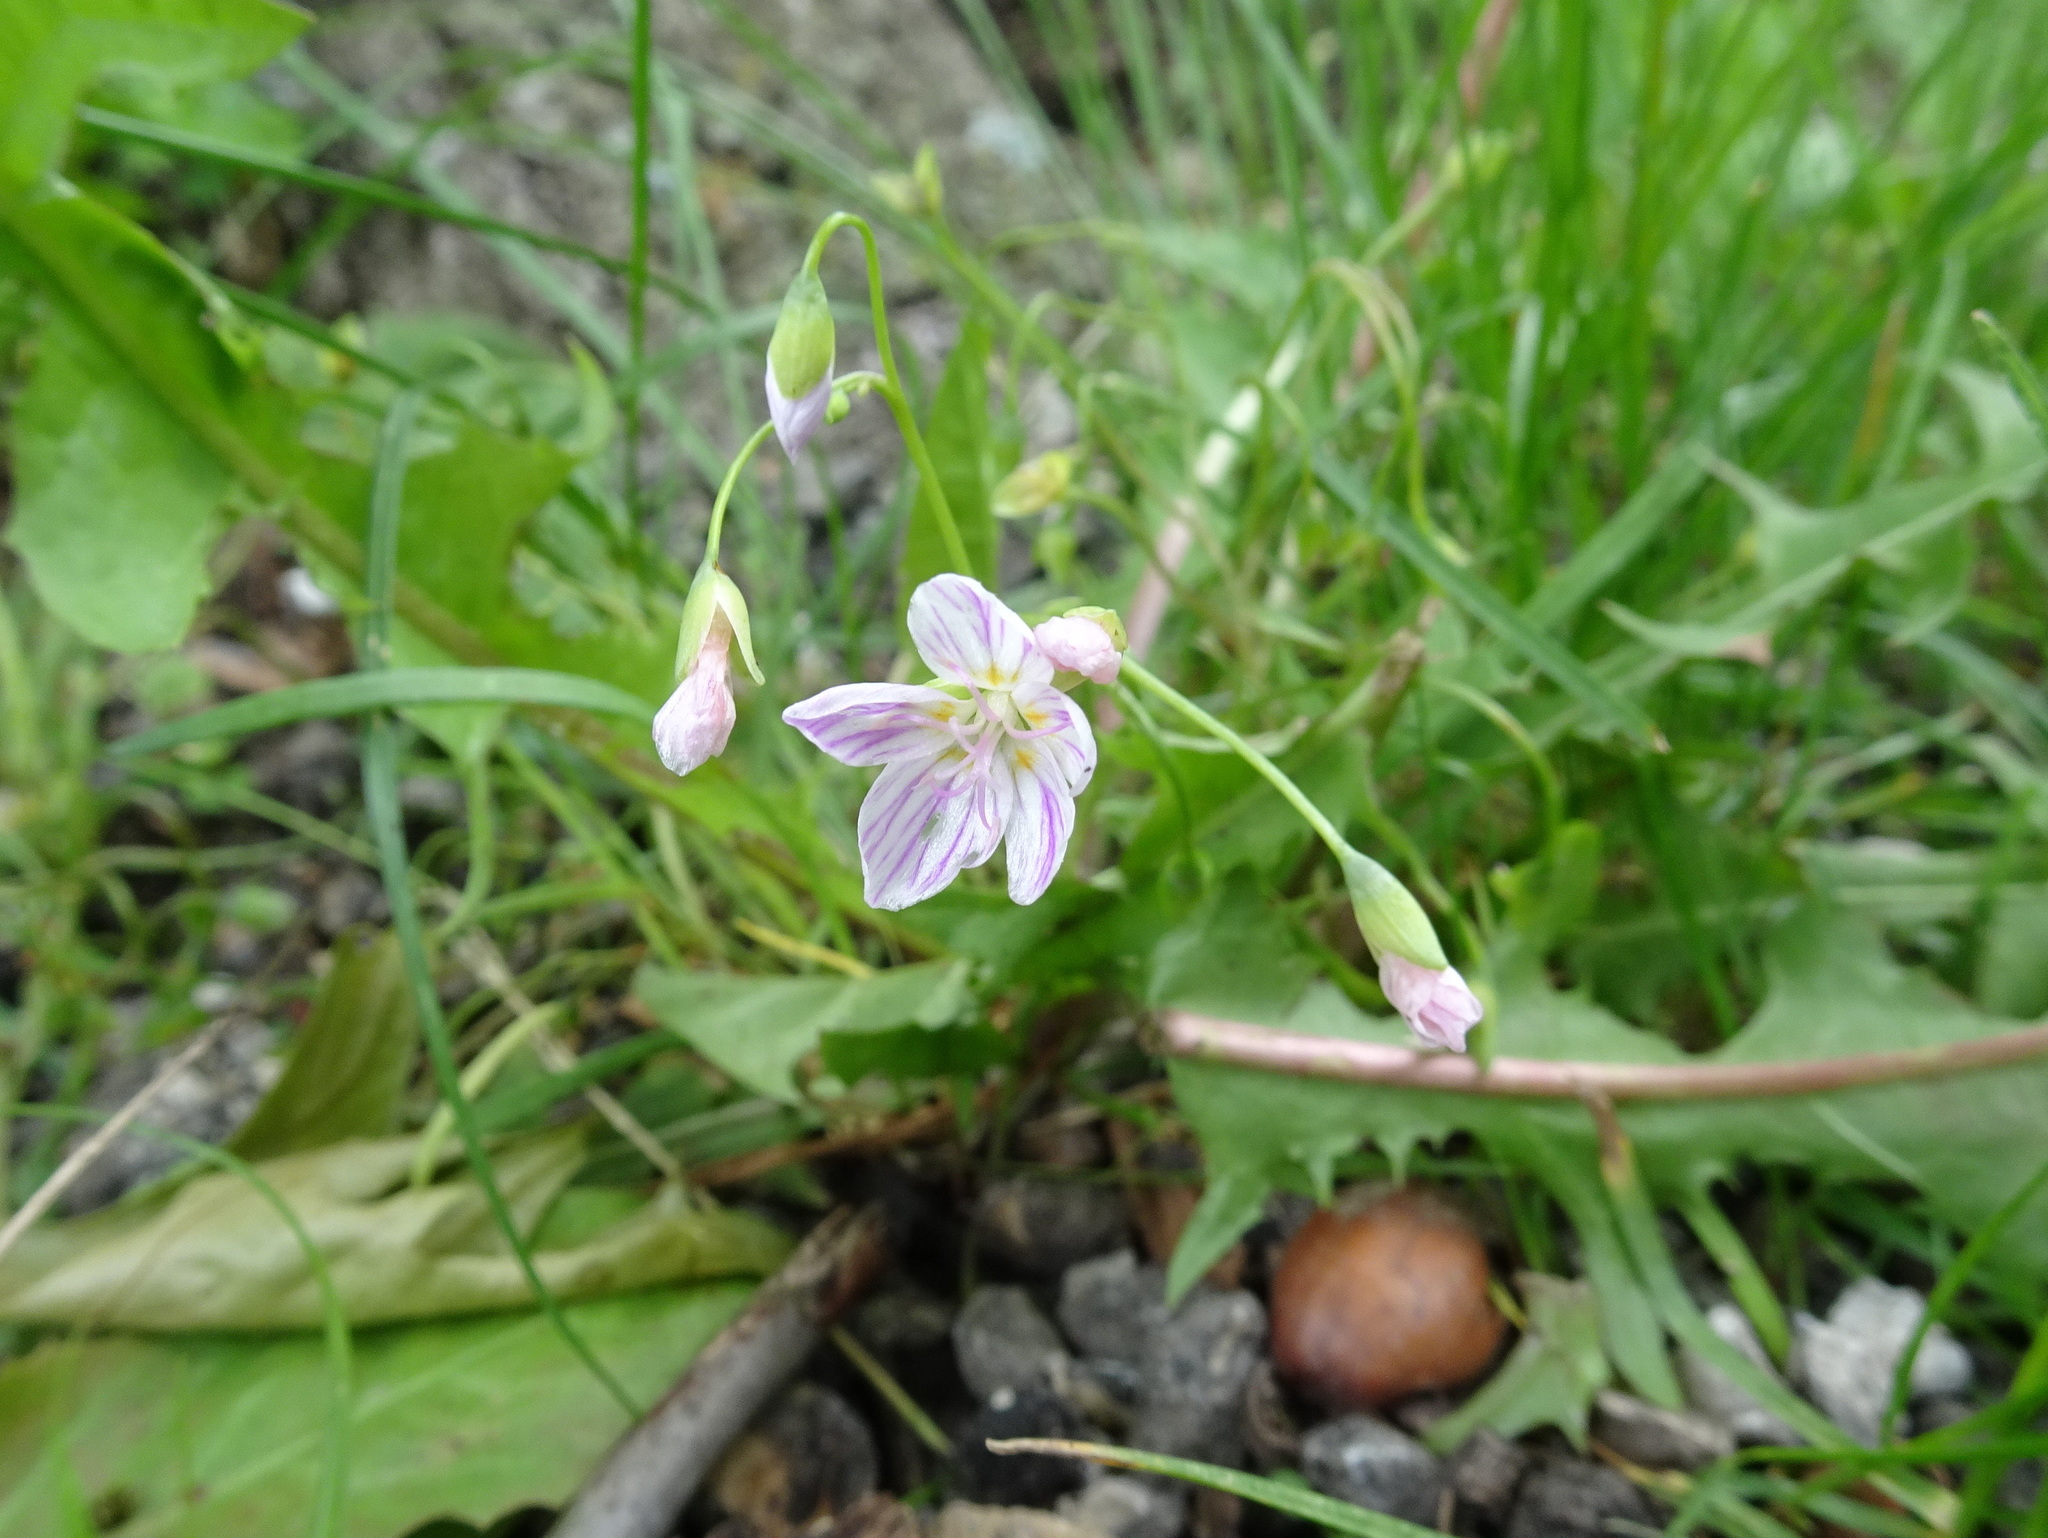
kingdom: Plantae
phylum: Tracheophyta
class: Magnoliopsida
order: Caryophyllales
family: Montiaceae
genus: Claytonia
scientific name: Claytonia virginica
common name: Virginia springbeauty
